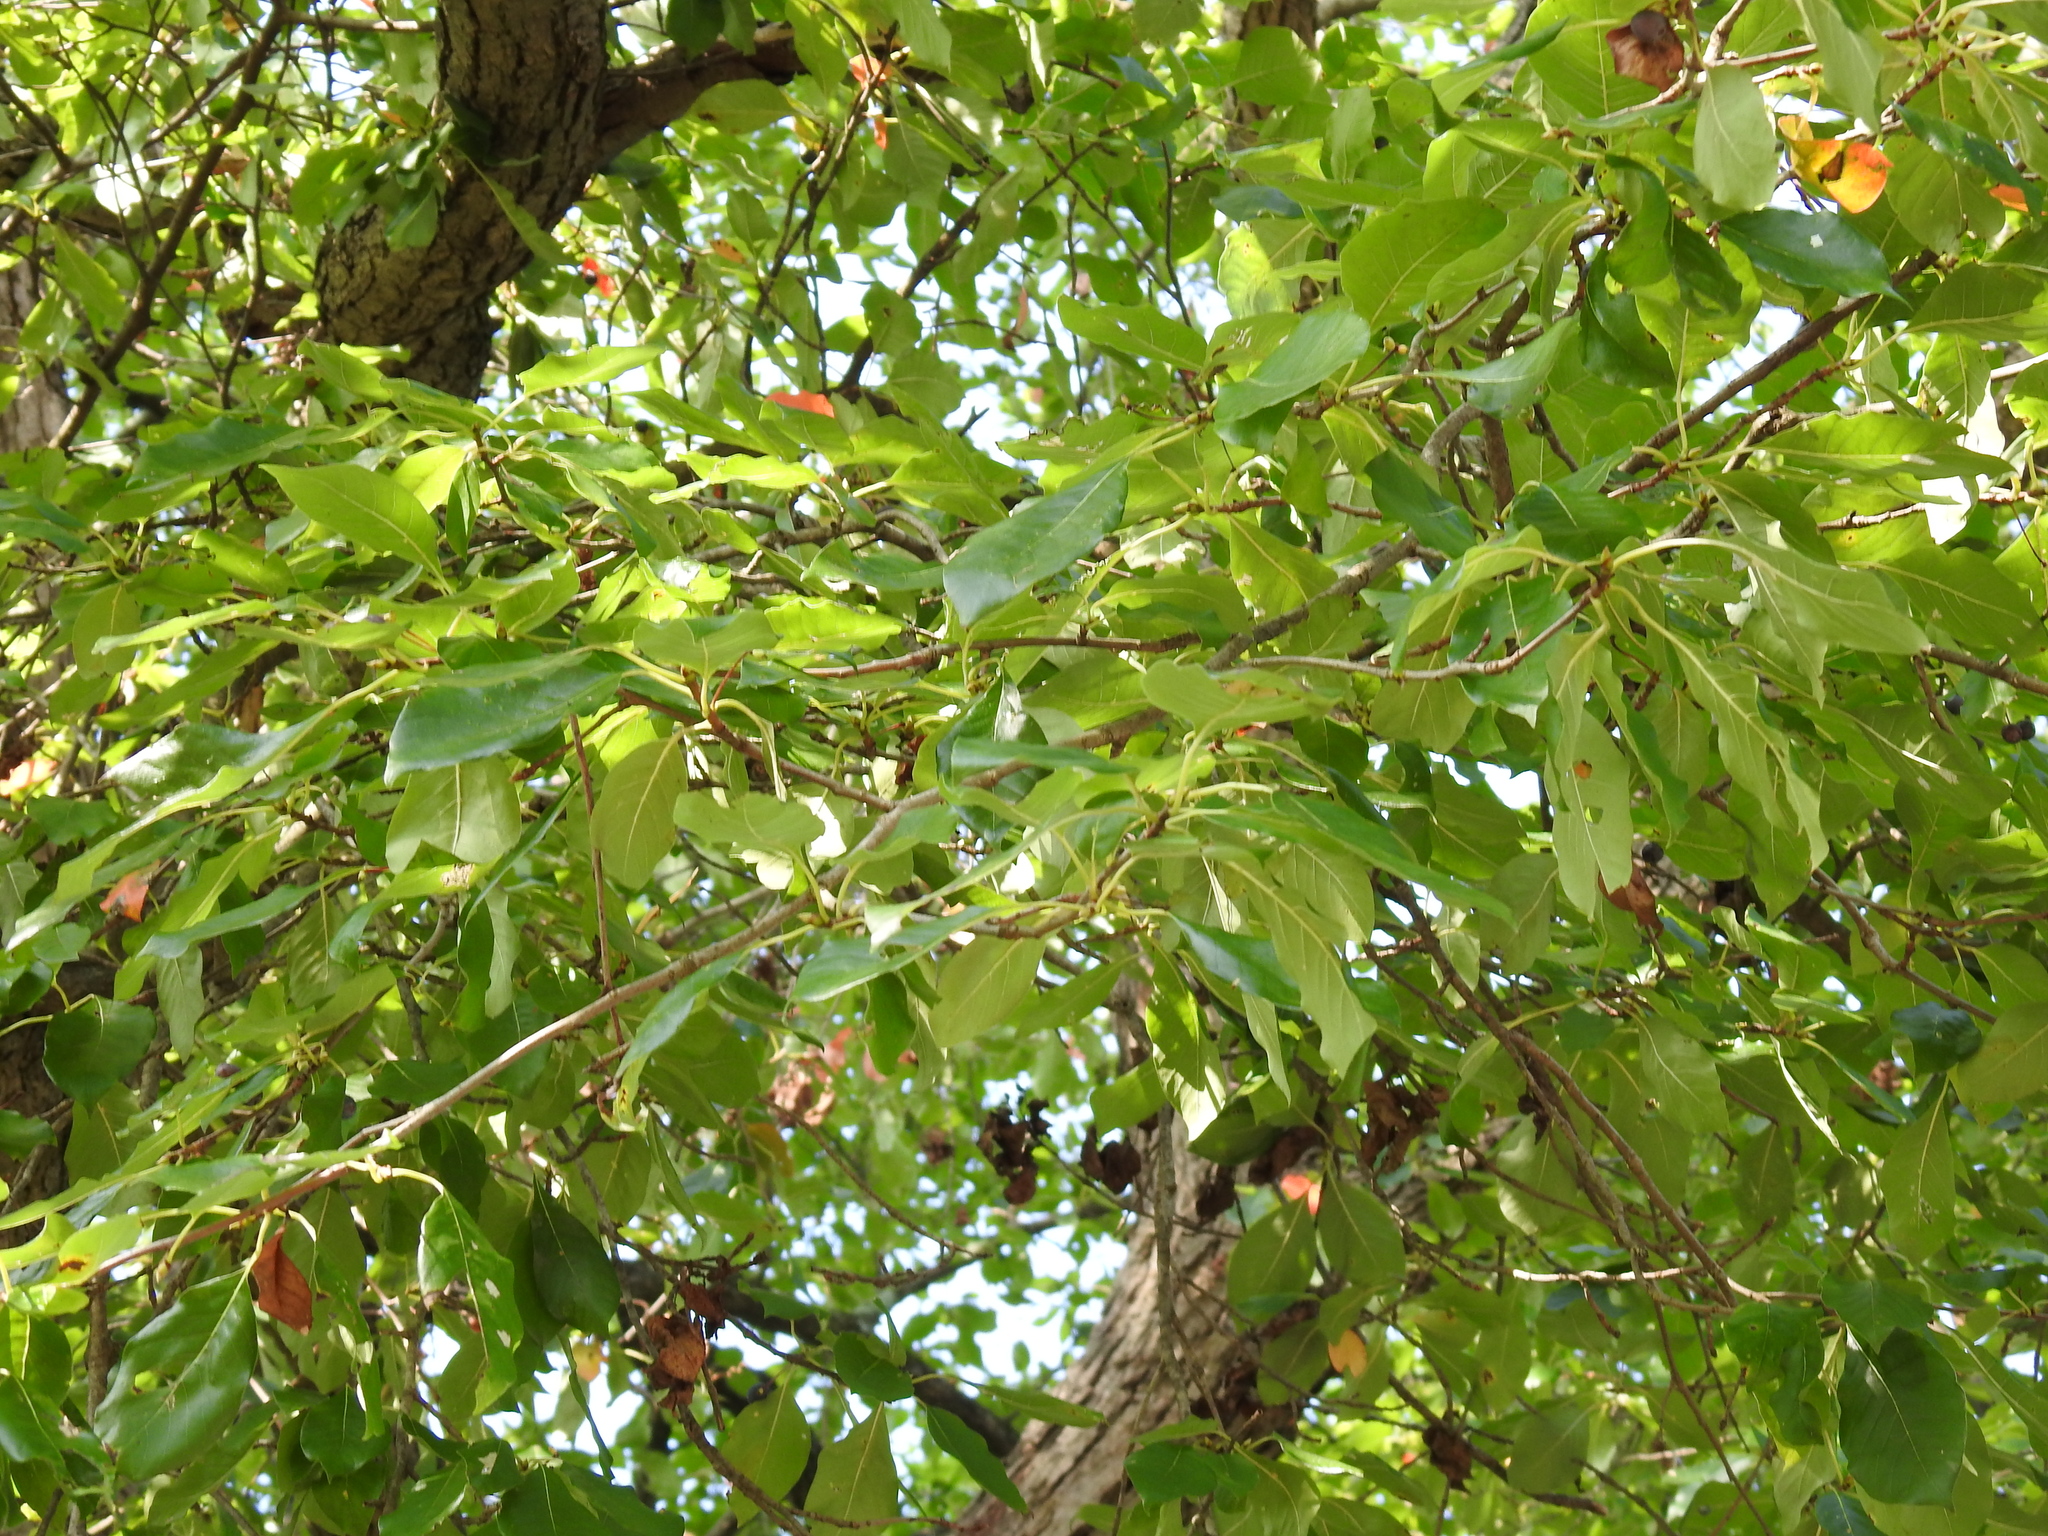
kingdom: Plantae
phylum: Tracheophyta
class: Magnoliopsida
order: Cornales
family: Nyssaceae
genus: Nyssa
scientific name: Nyssa sylvatica
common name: Black tupelo
